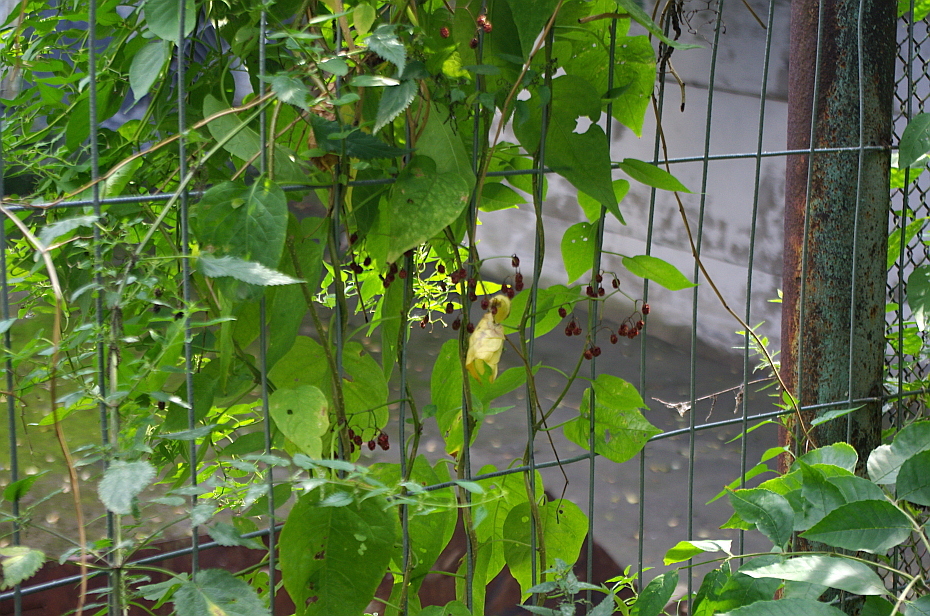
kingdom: Plantae
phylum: Tracheophyta
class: Magnoliopsida
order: Solanales
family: Solanaceae
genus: Solanum
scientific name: Solanum dulcamara
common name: Climbing nightshade
